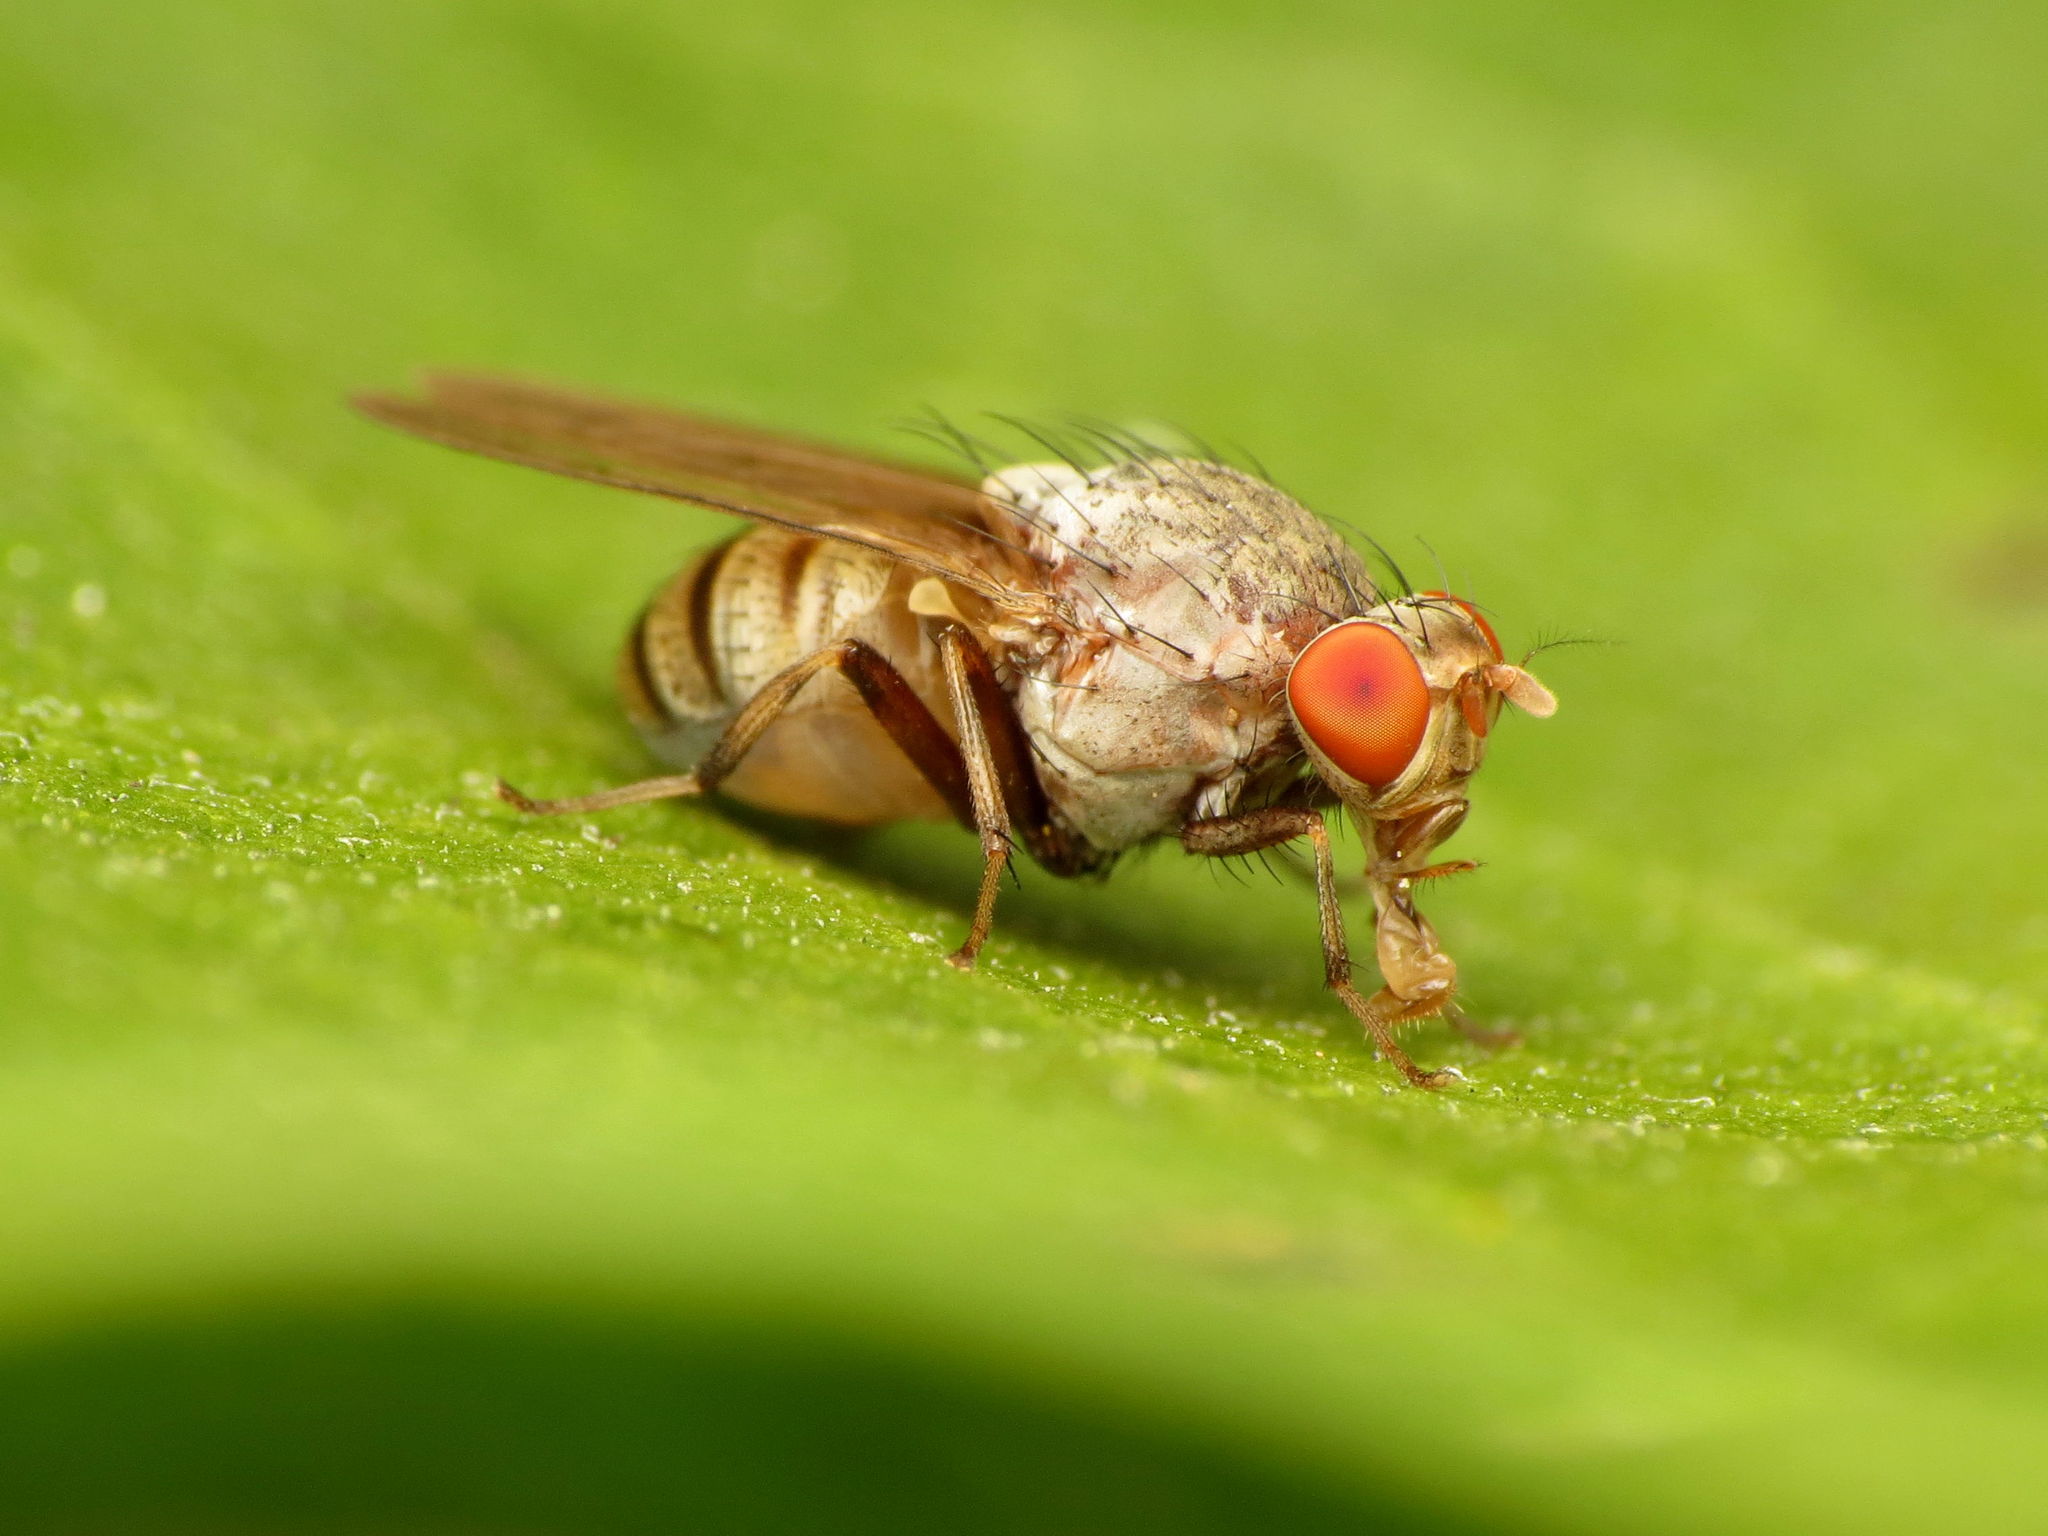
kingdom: Animalia
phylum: Arthropoda
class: Insecta
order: Diptera
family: Lauxaniidae
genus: Minettia
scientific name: Minettia magna
